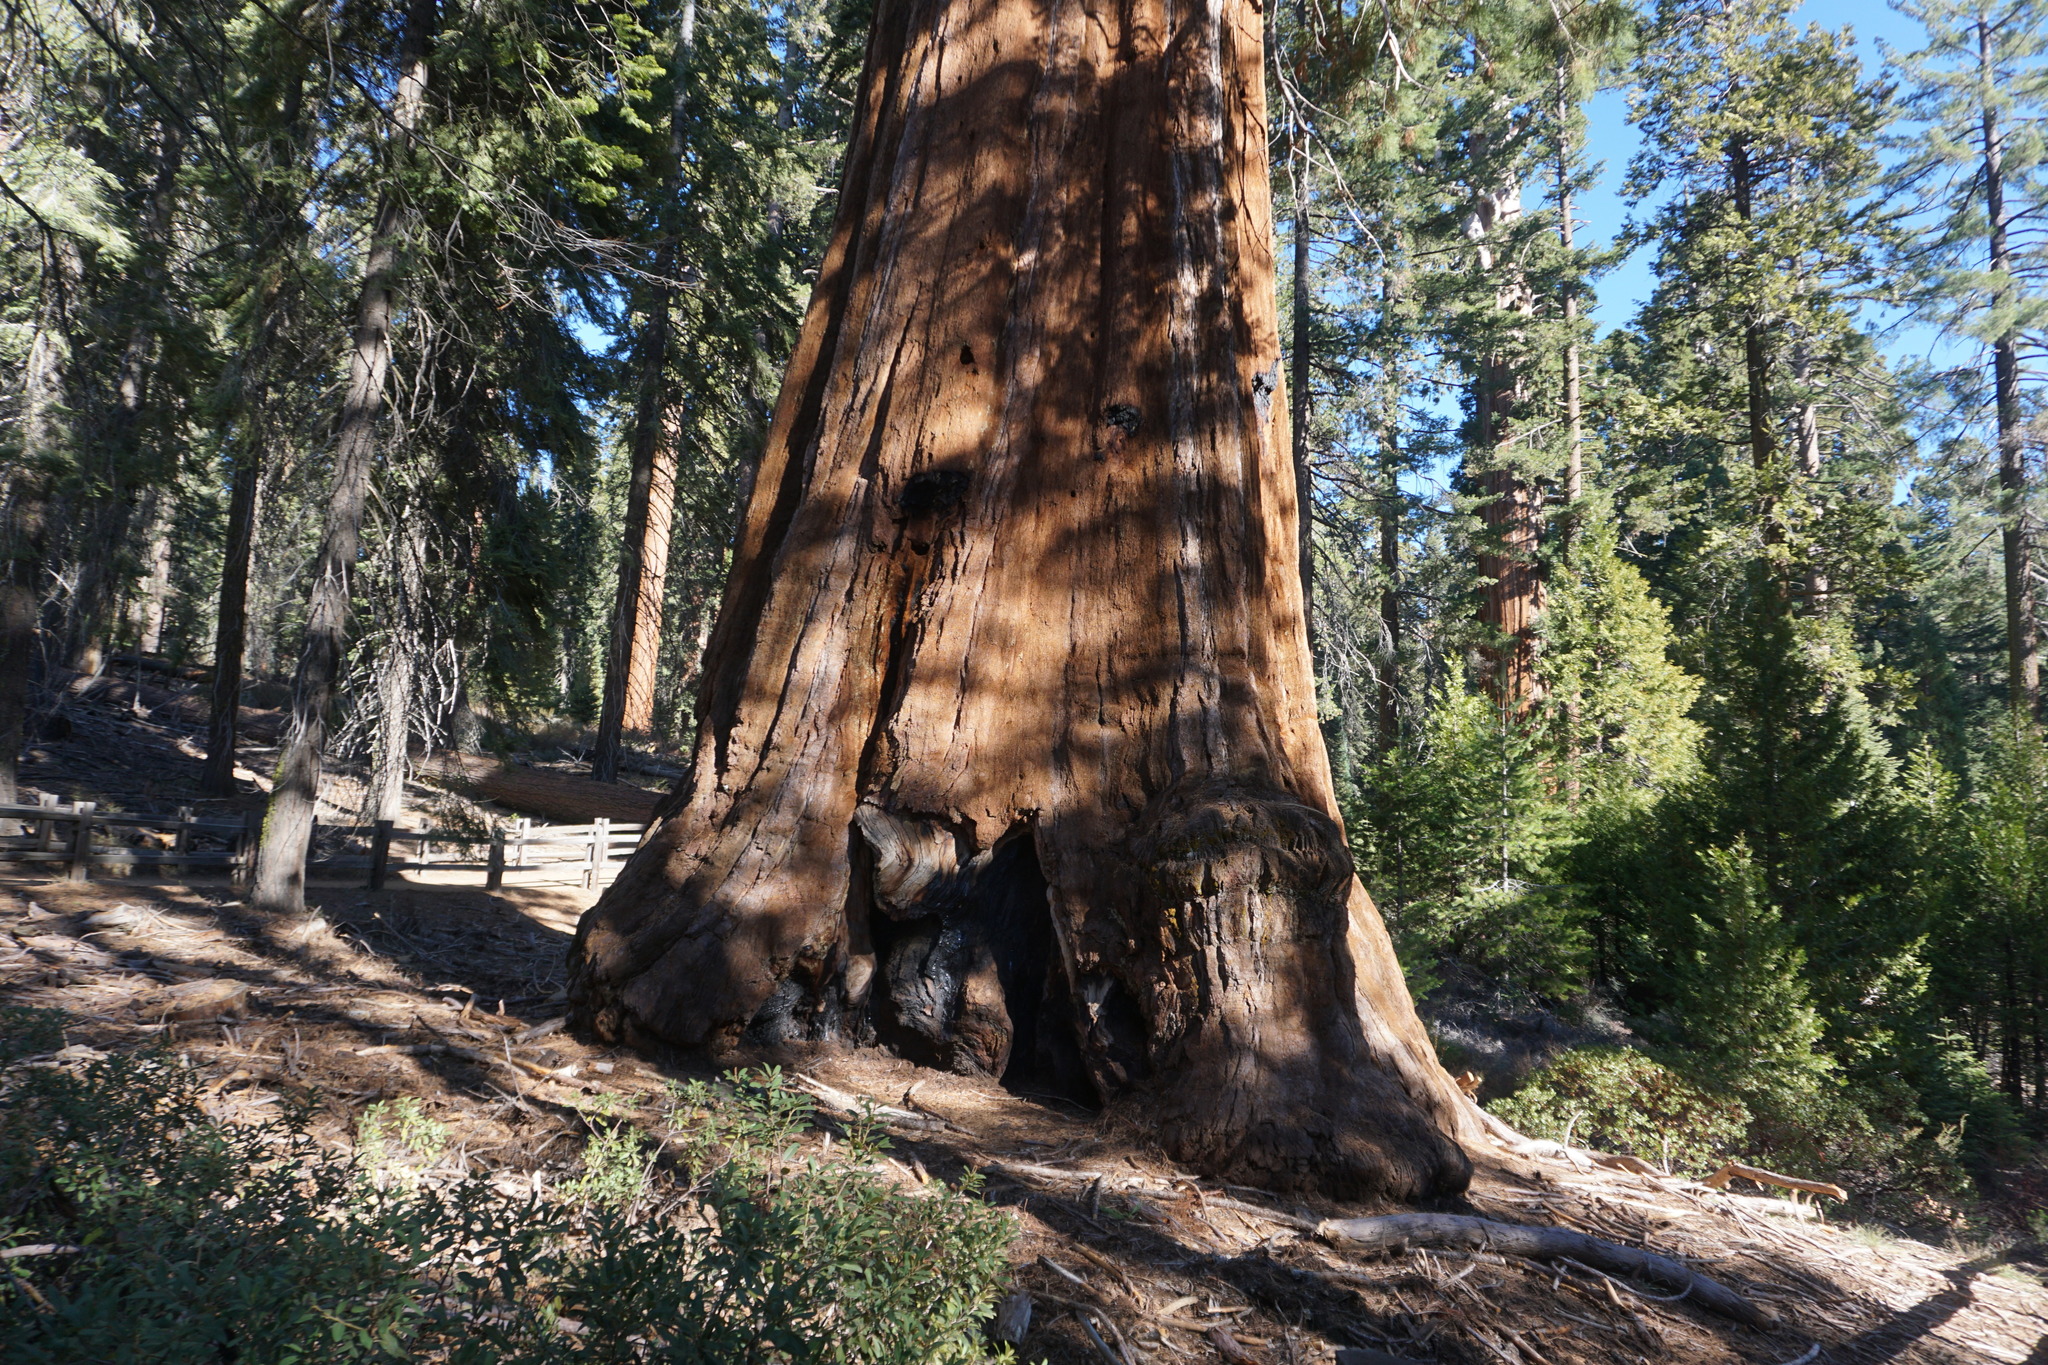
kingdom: Plantae
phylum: Tracheophyta
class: Pinopsida
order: Pinales
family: Cupressaceae
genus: Sequoiadendron
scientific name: Sequoiadendron giganteum
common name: Wellingtonia
